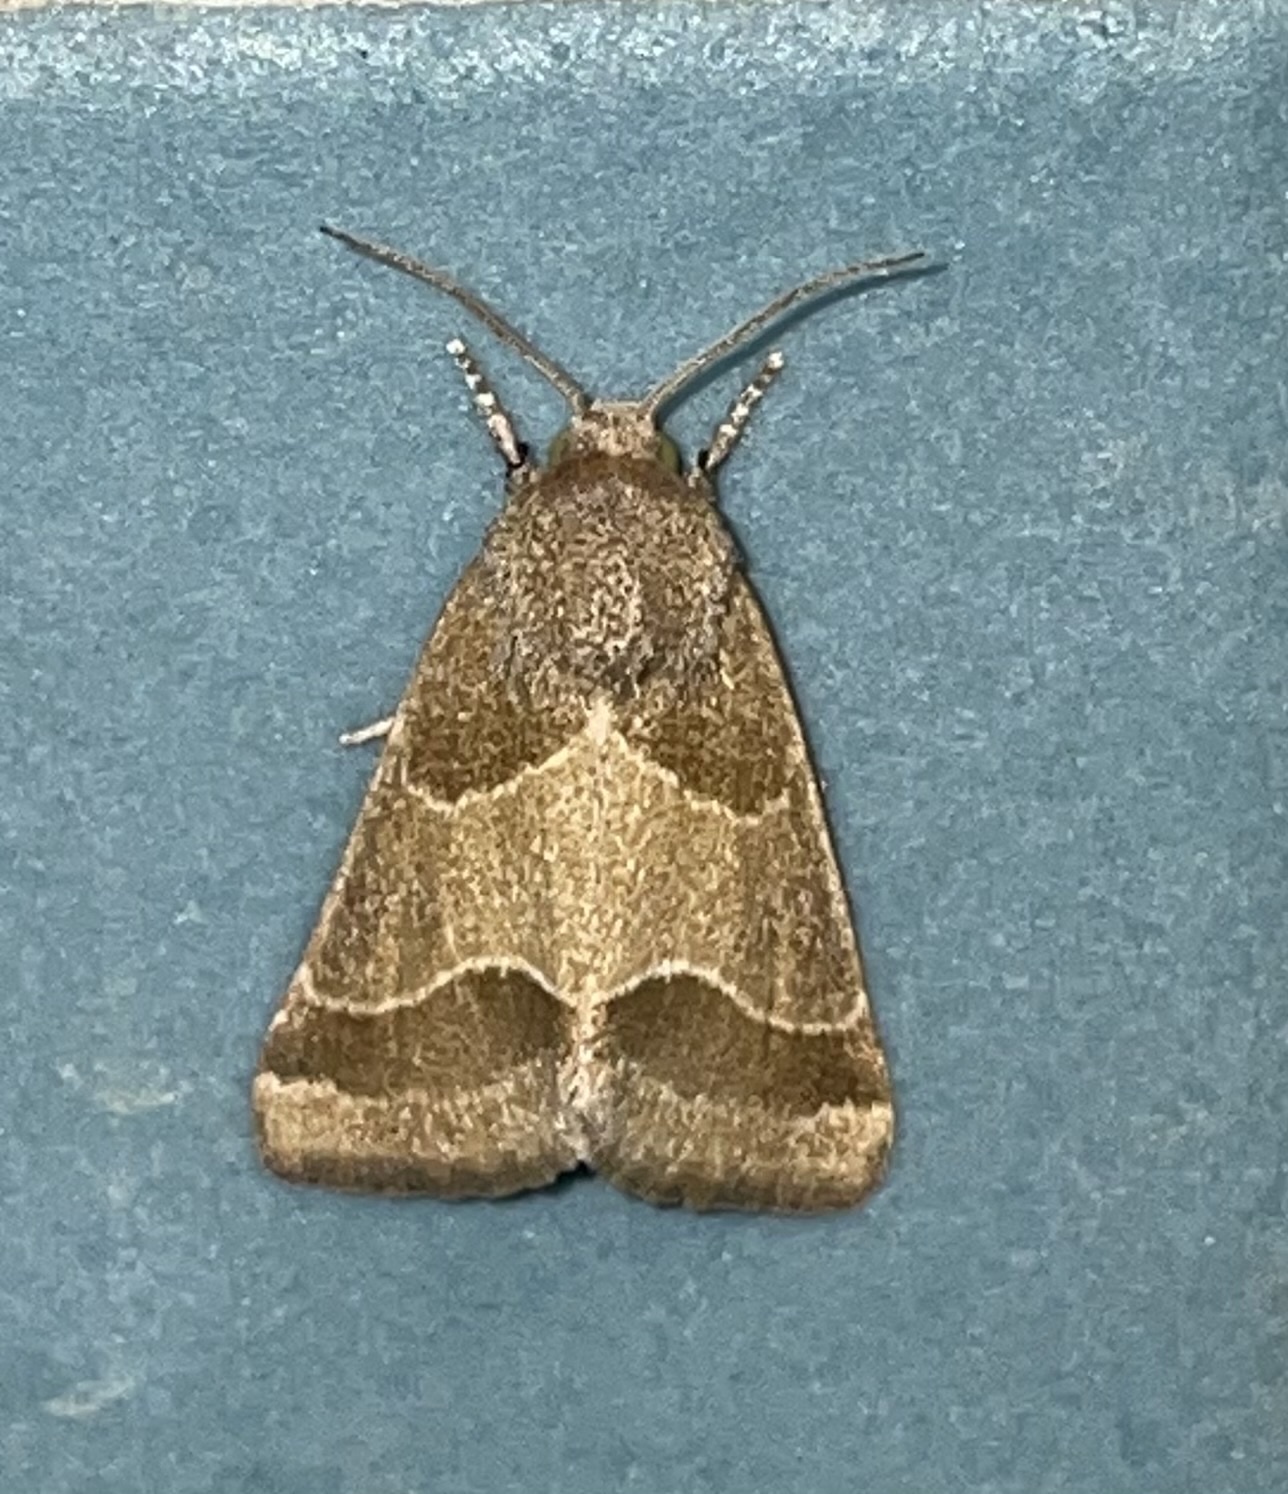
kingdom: Animalia
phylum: Arthropoda
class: Insecta
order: Lepidoptera
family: Noctuidae
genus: Schinia
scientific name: Schinia gracilenta
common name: Slender flower moth
